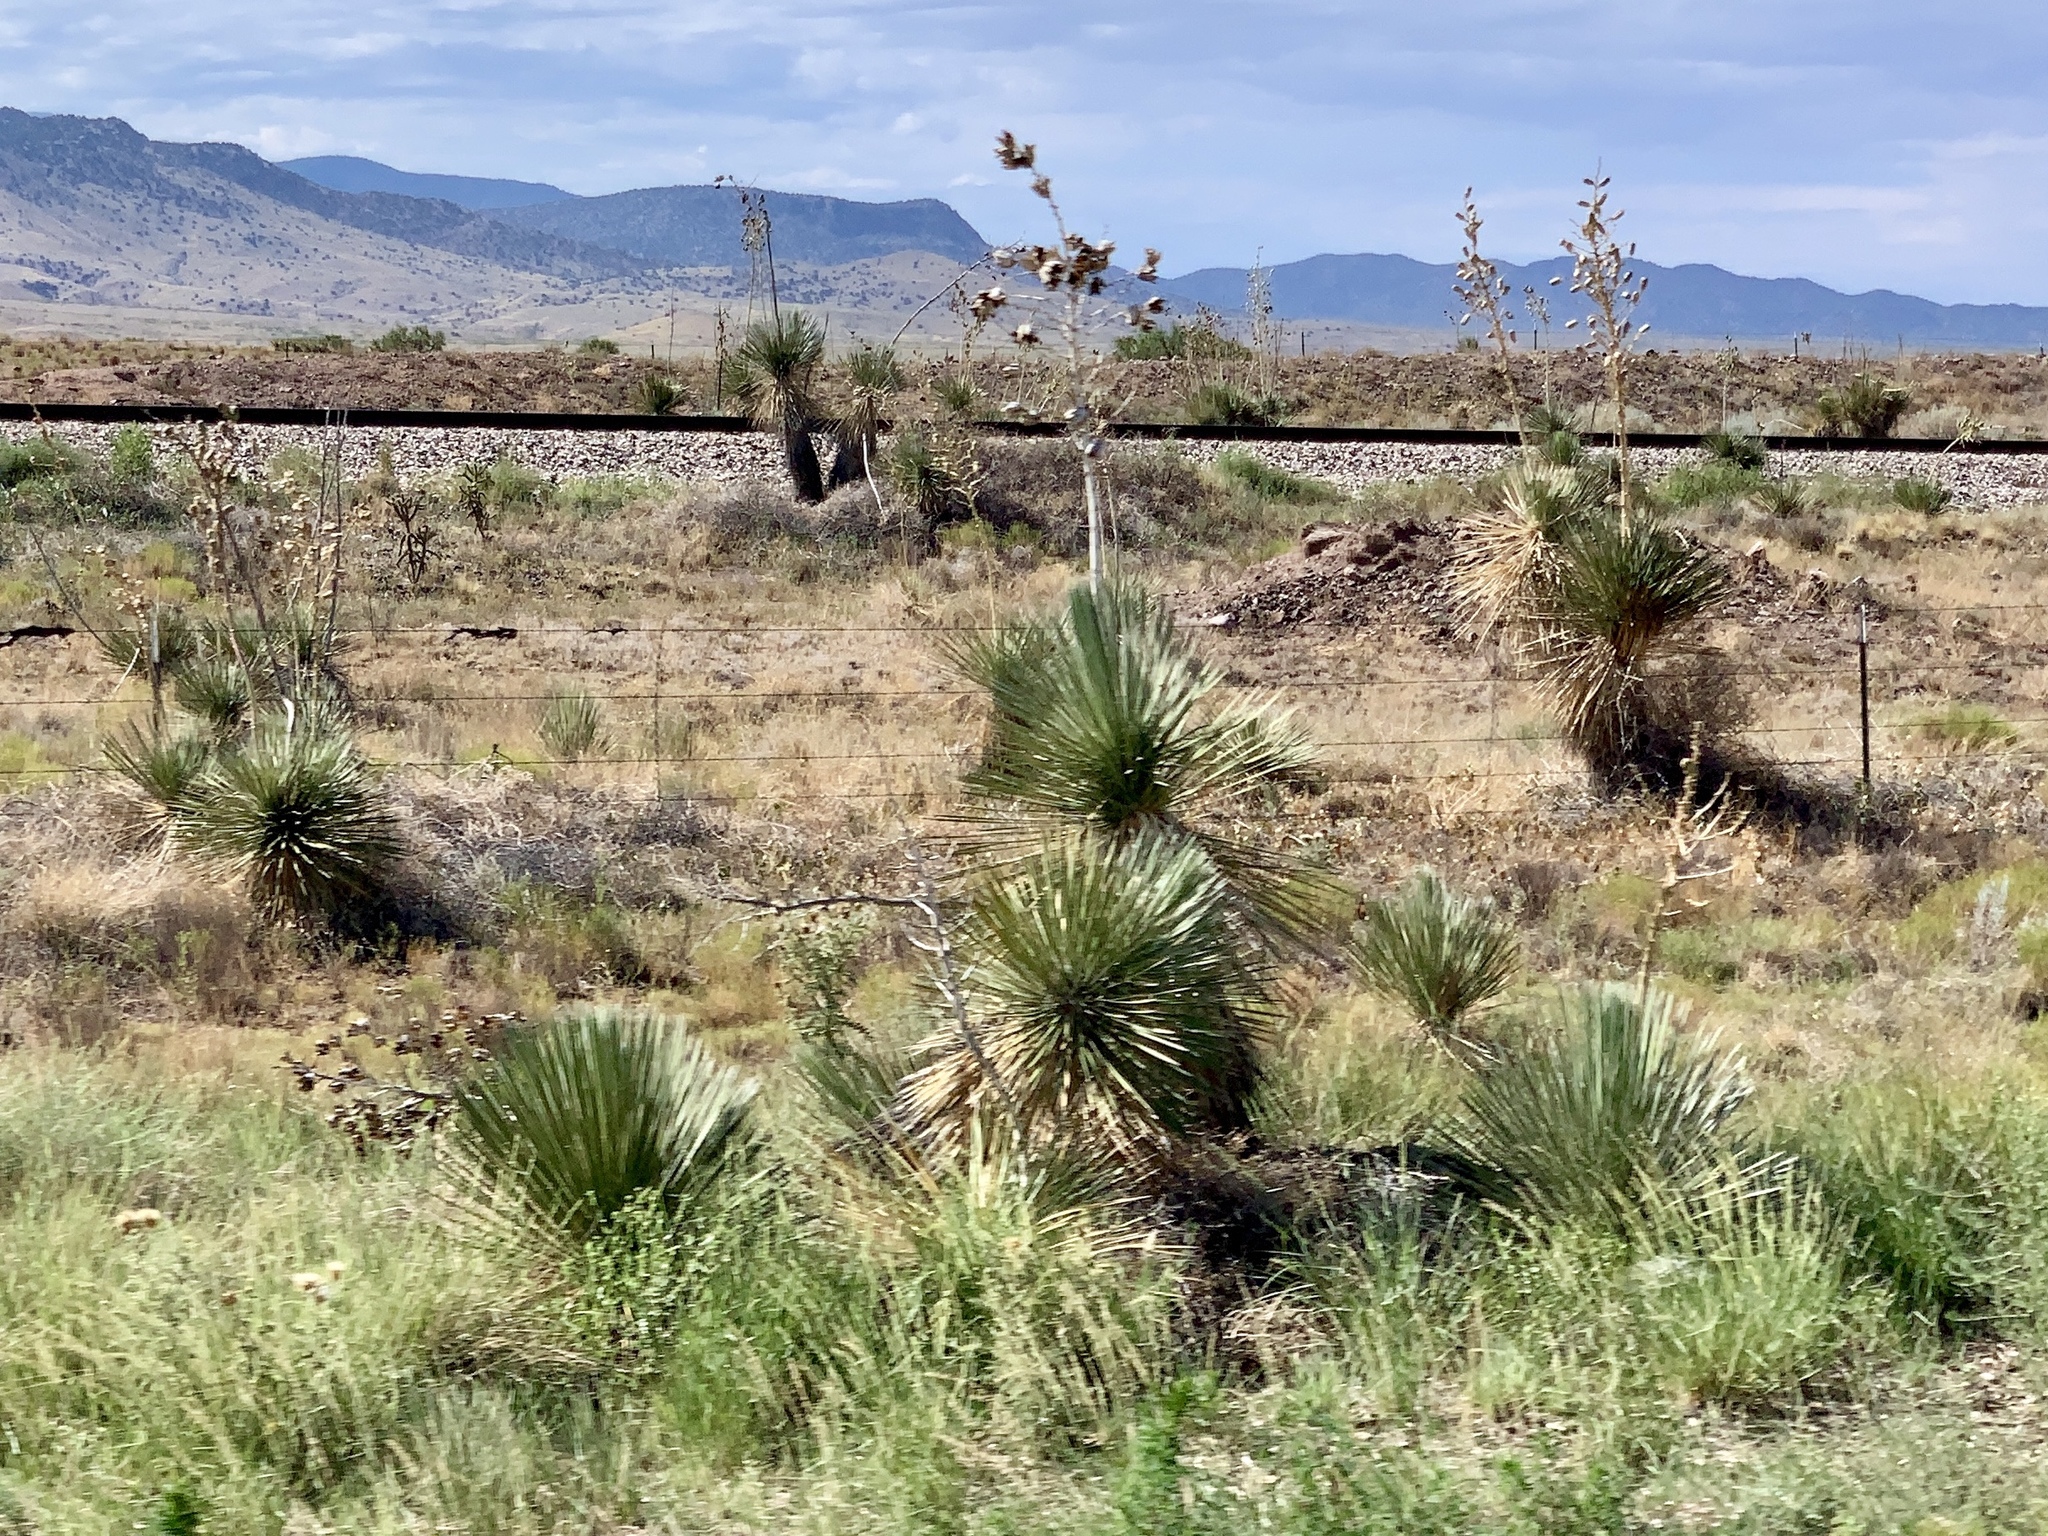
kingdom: Plantae
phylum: Tracheophyta
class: Liliopsida
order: Asparagales
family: Asparagaceae
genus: Yucca
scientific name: Yucca elata
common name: Palmella
